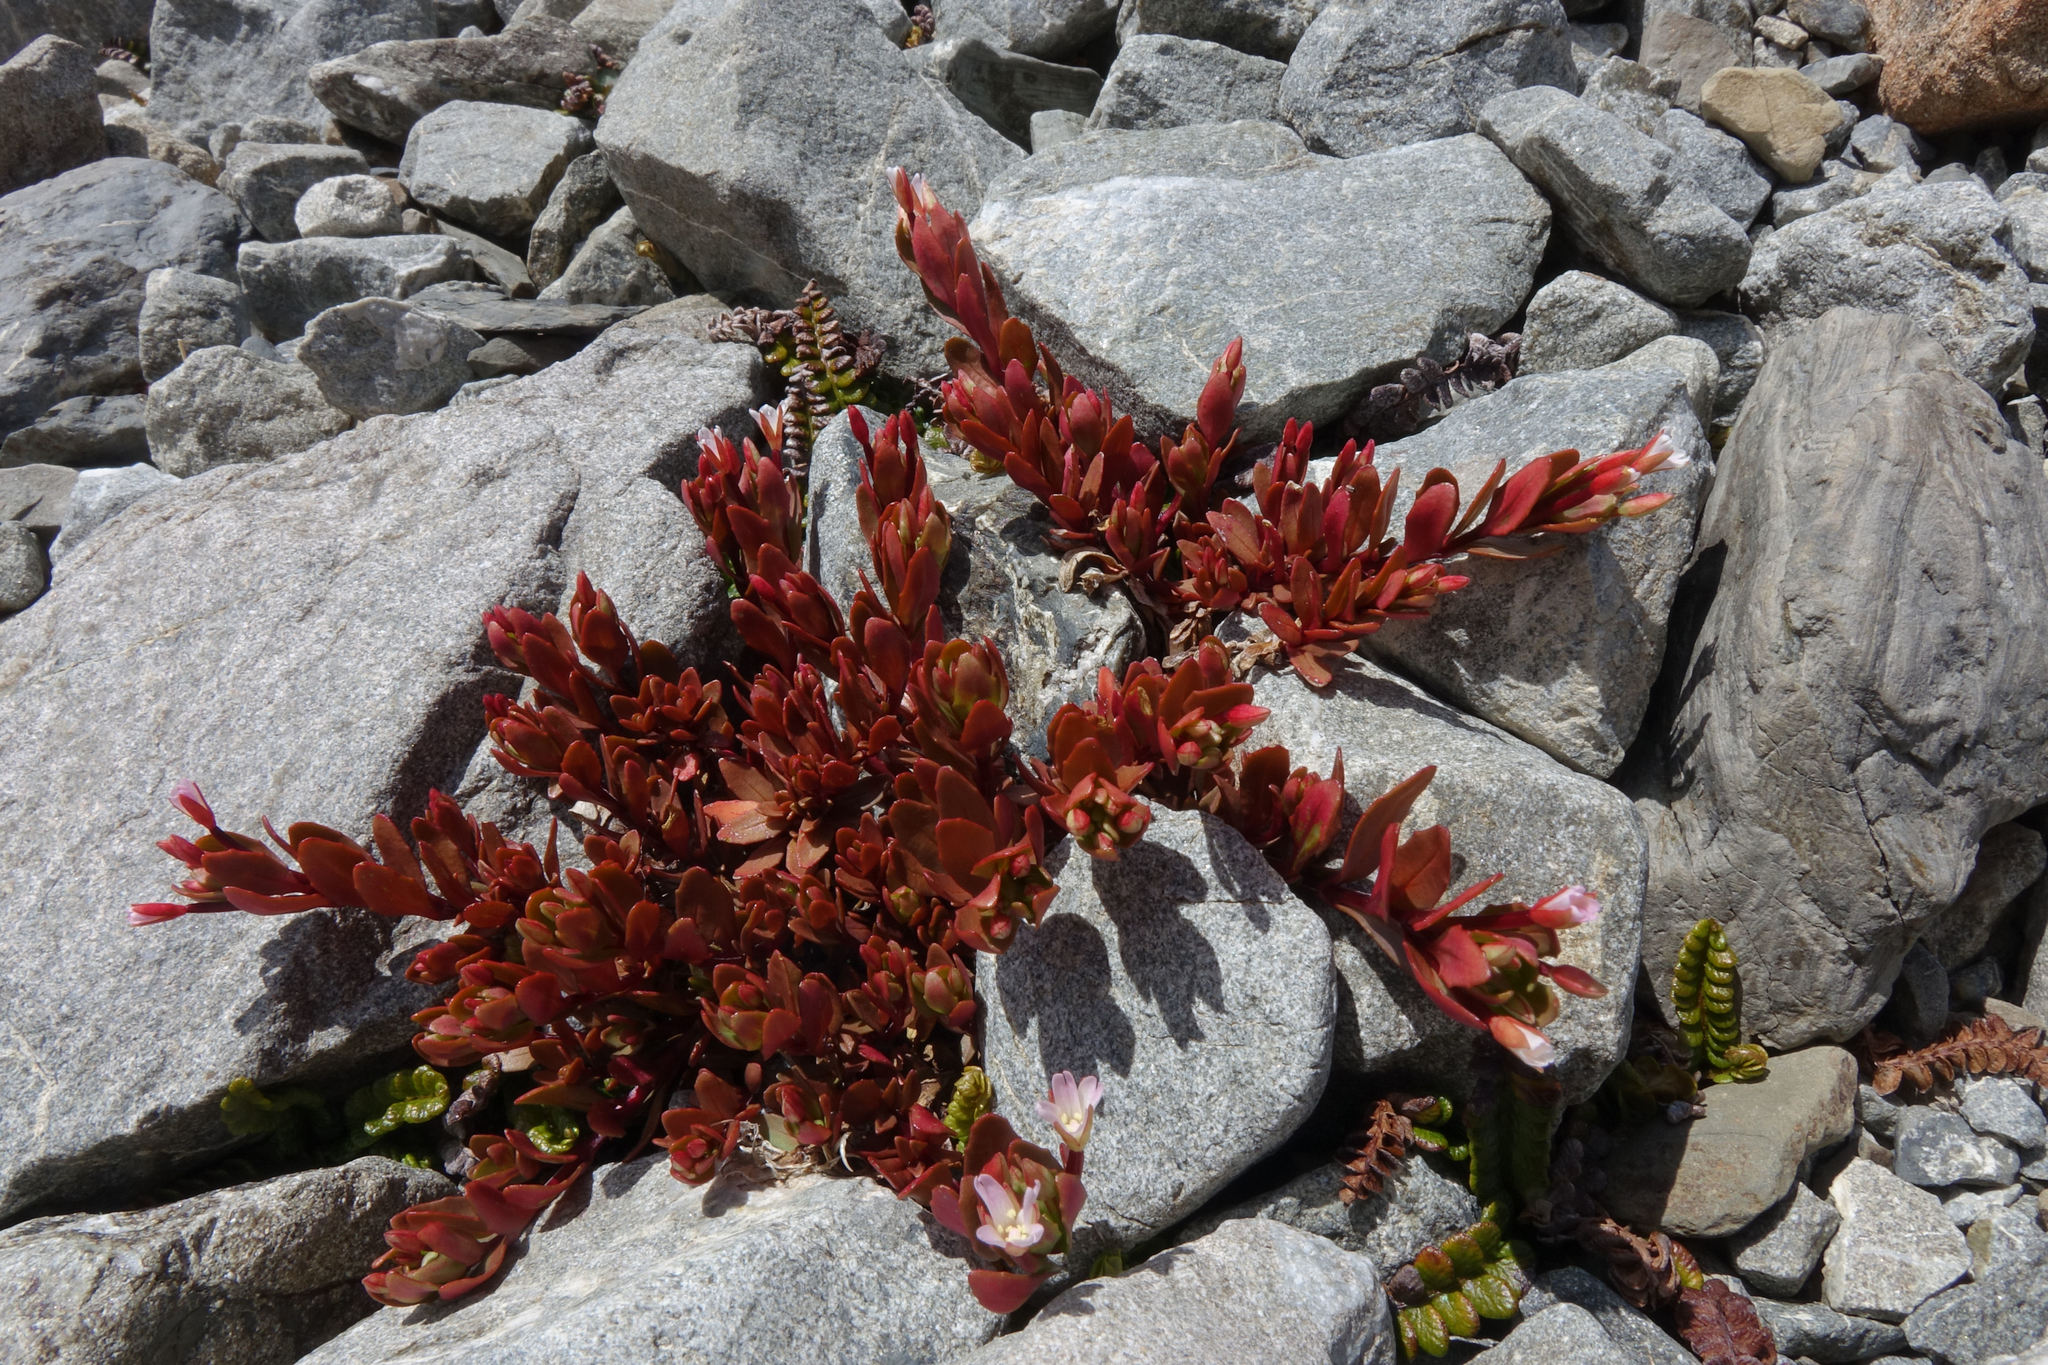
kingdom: Plantae
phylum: Tracheophyta
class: Magnoliopsida
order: Myrtales
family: Onagraceae
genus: Epilobium
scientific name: Epilobium porphyrium
